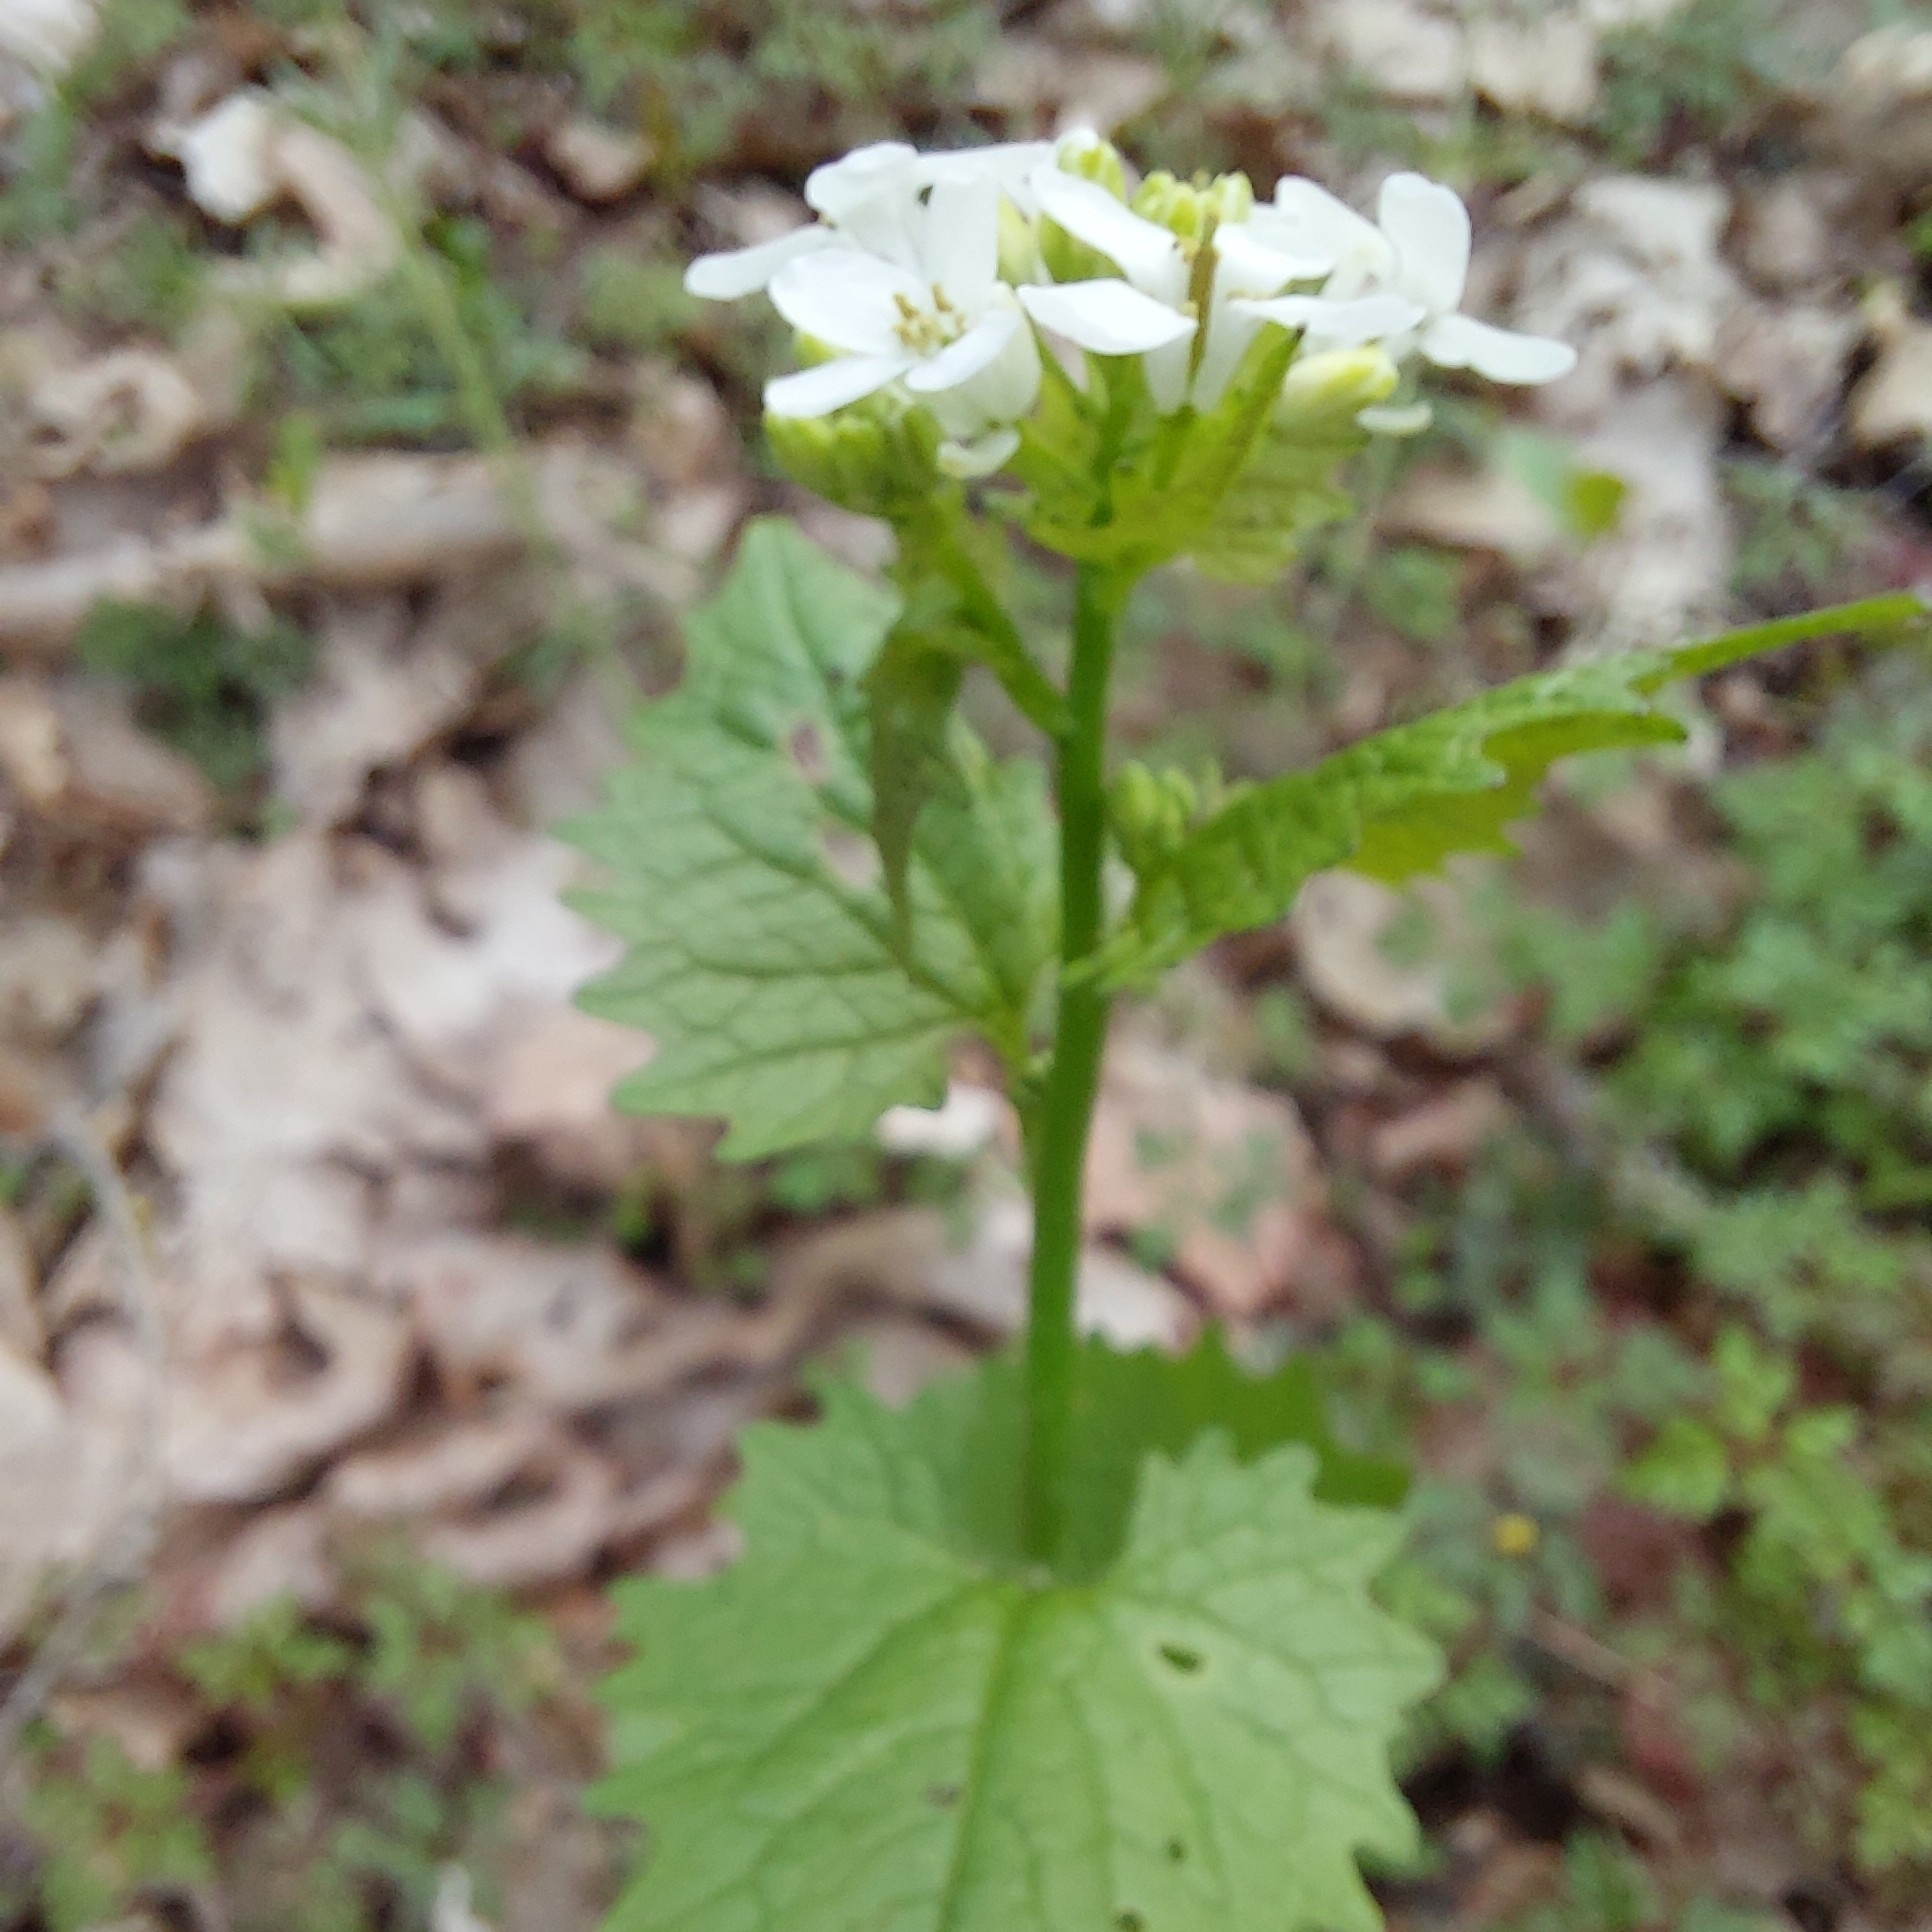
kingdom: Plantae
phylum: Tracheophyta
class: Magnoliopsida
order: Brassicales
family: Brassicaceae
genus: Alliaria
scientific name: Alliaria petiolata
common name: Garlic mustard
